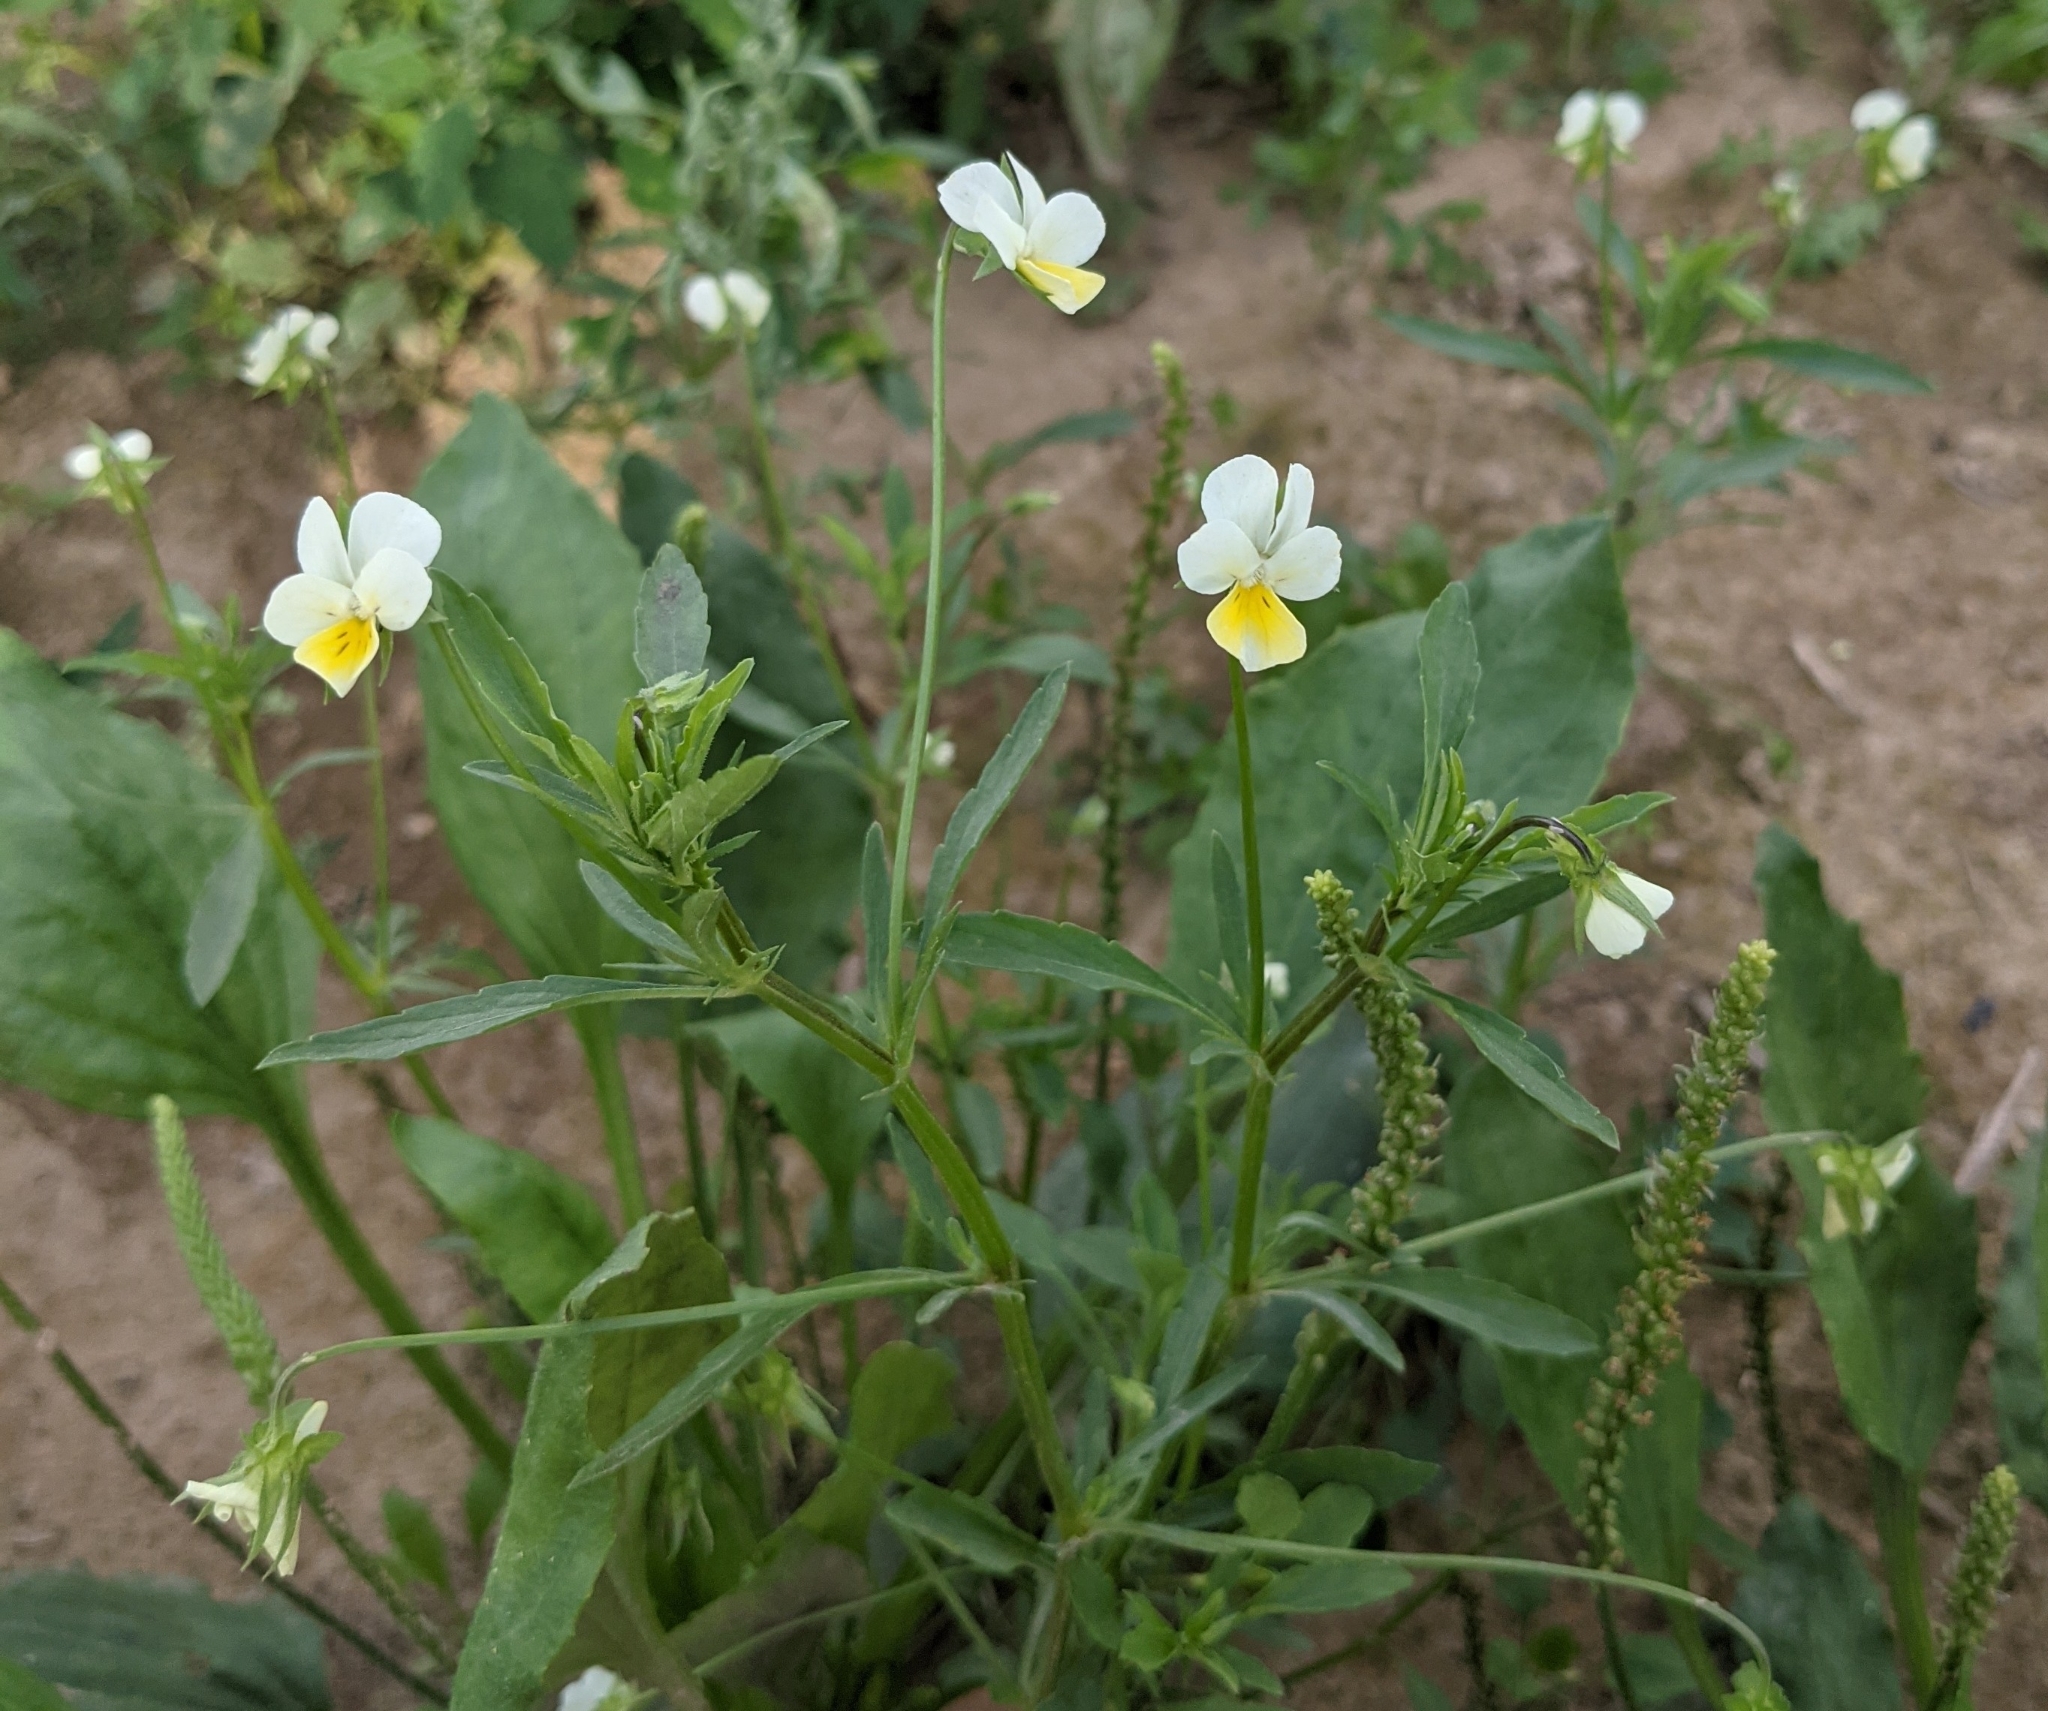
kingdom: Plantae
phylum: Tracheophyta
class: Magnoliopsida
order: Malpighiales
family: Violaceae
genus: Viola
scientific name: Viola arvensis
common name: Field pansy
